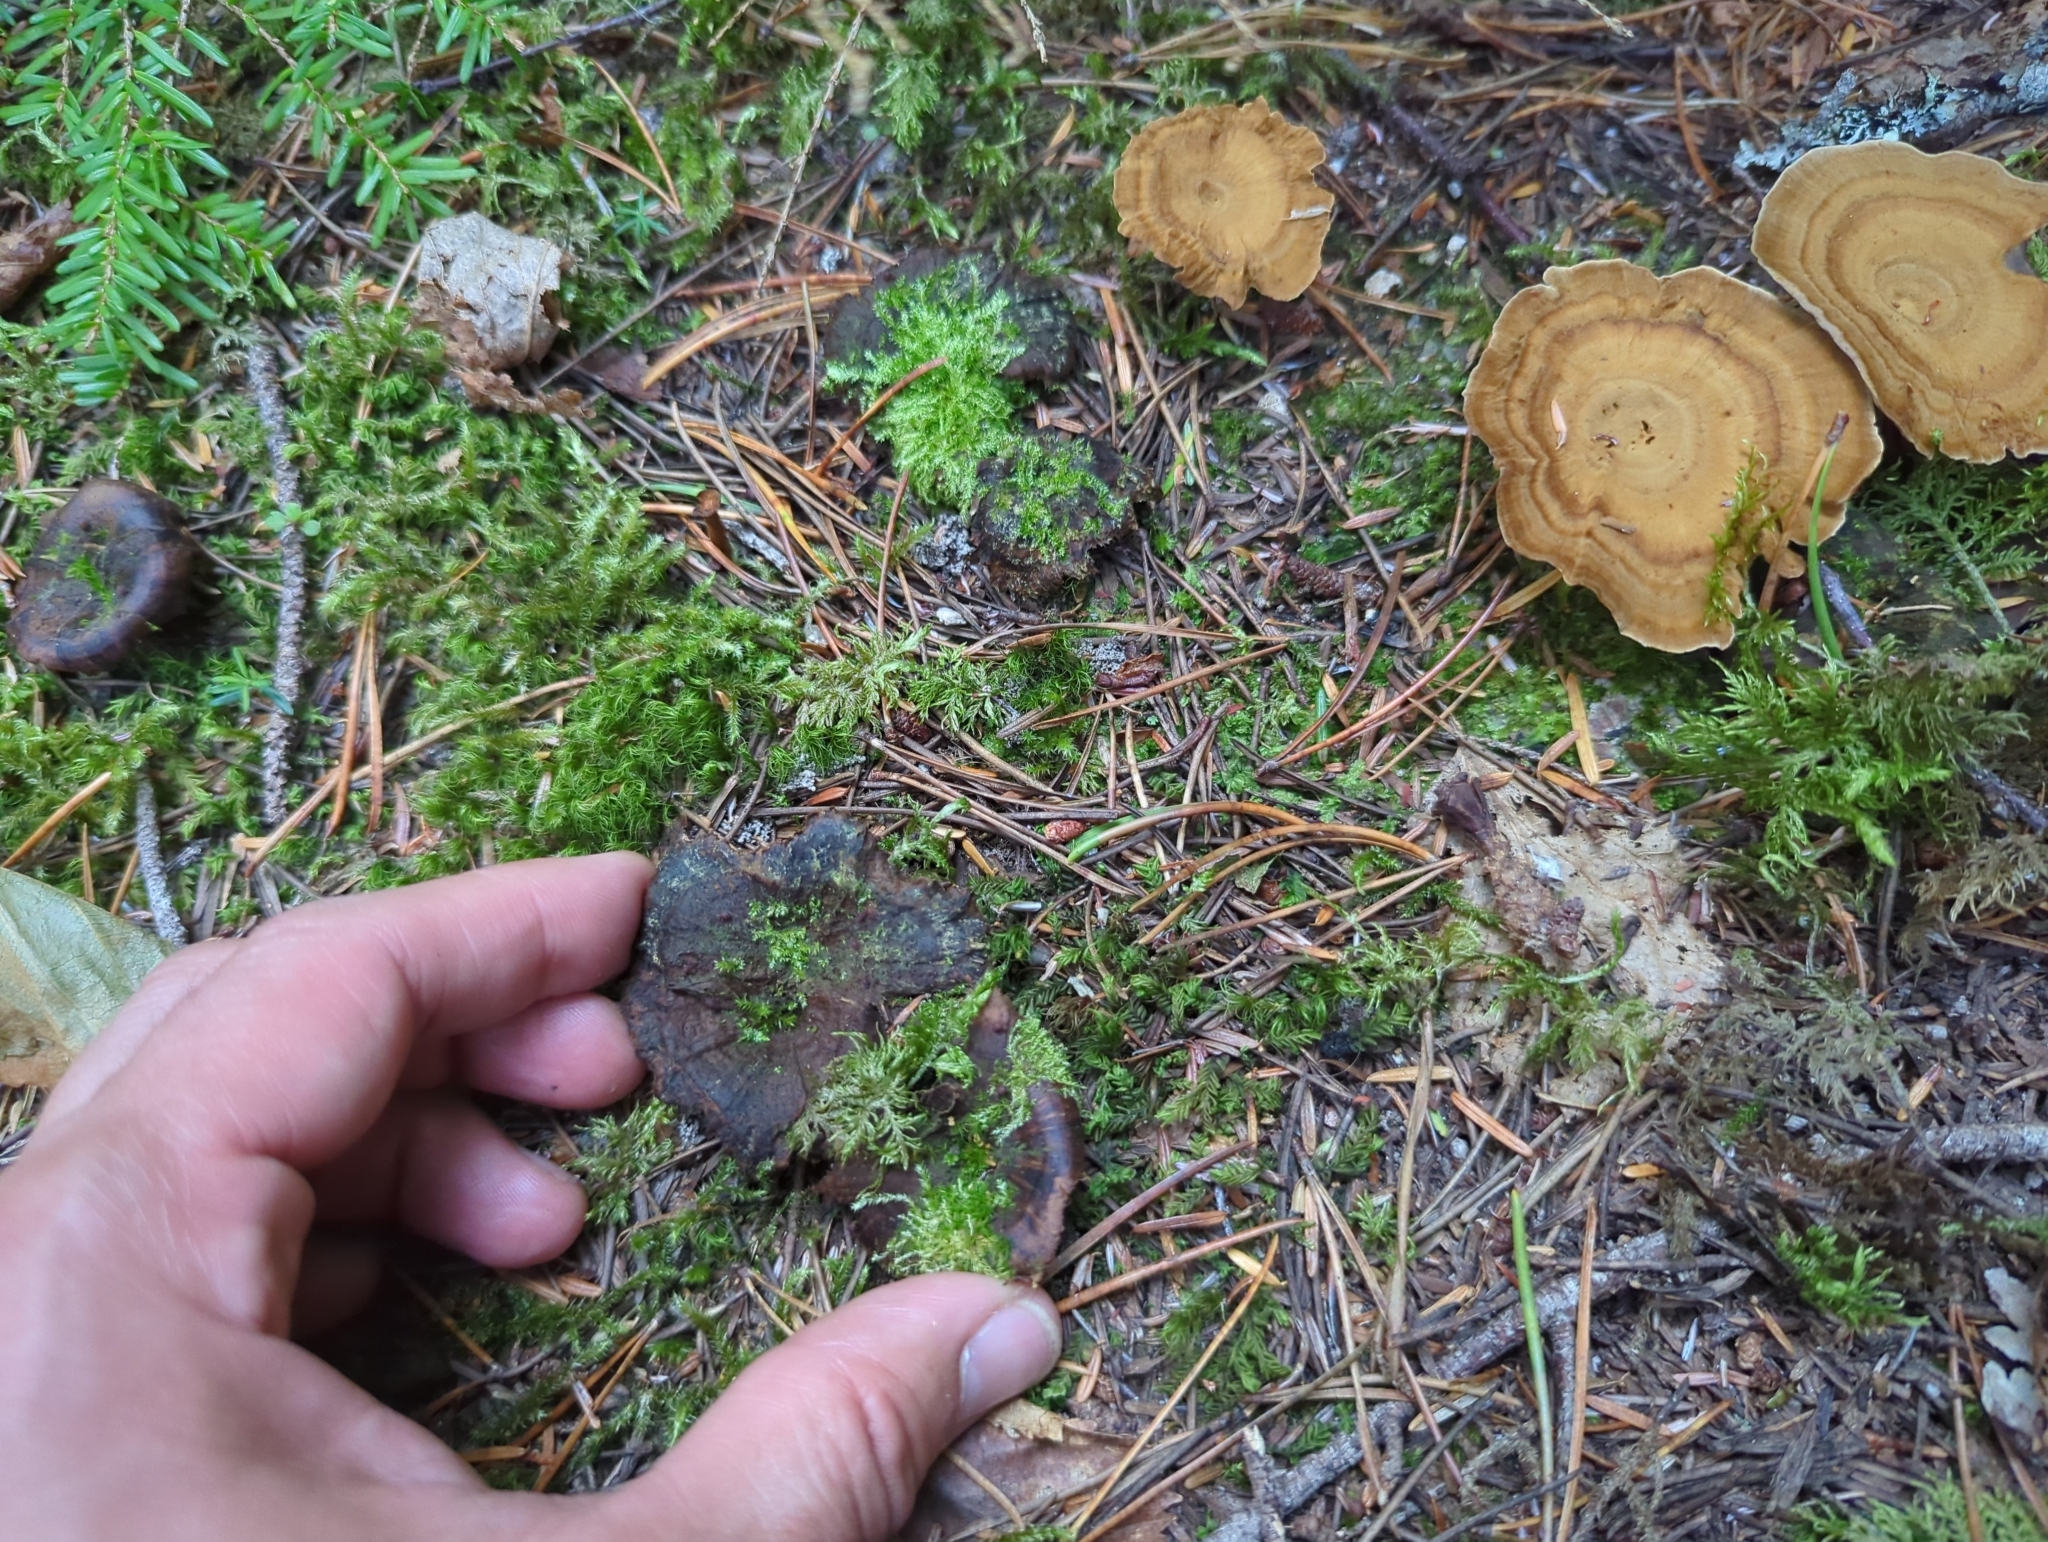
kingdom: Fungi
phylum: Basidiomycota
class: Agaricomycetes
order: Hymenochaetales
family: Hymenochaetaceae
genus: Coltricia
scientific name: Coltricia perennis
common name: Tiger's eye
